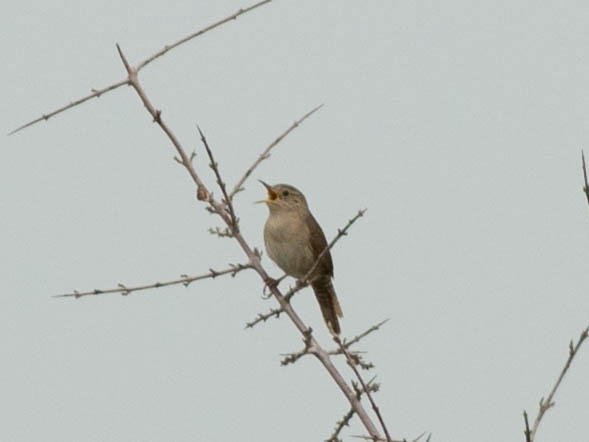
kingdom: Animalia
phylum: Chordata
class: Aves
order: Passeriformes
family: Troglodytidae
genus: Troglodytes
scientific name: Troglodytes aedon
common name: House wren
